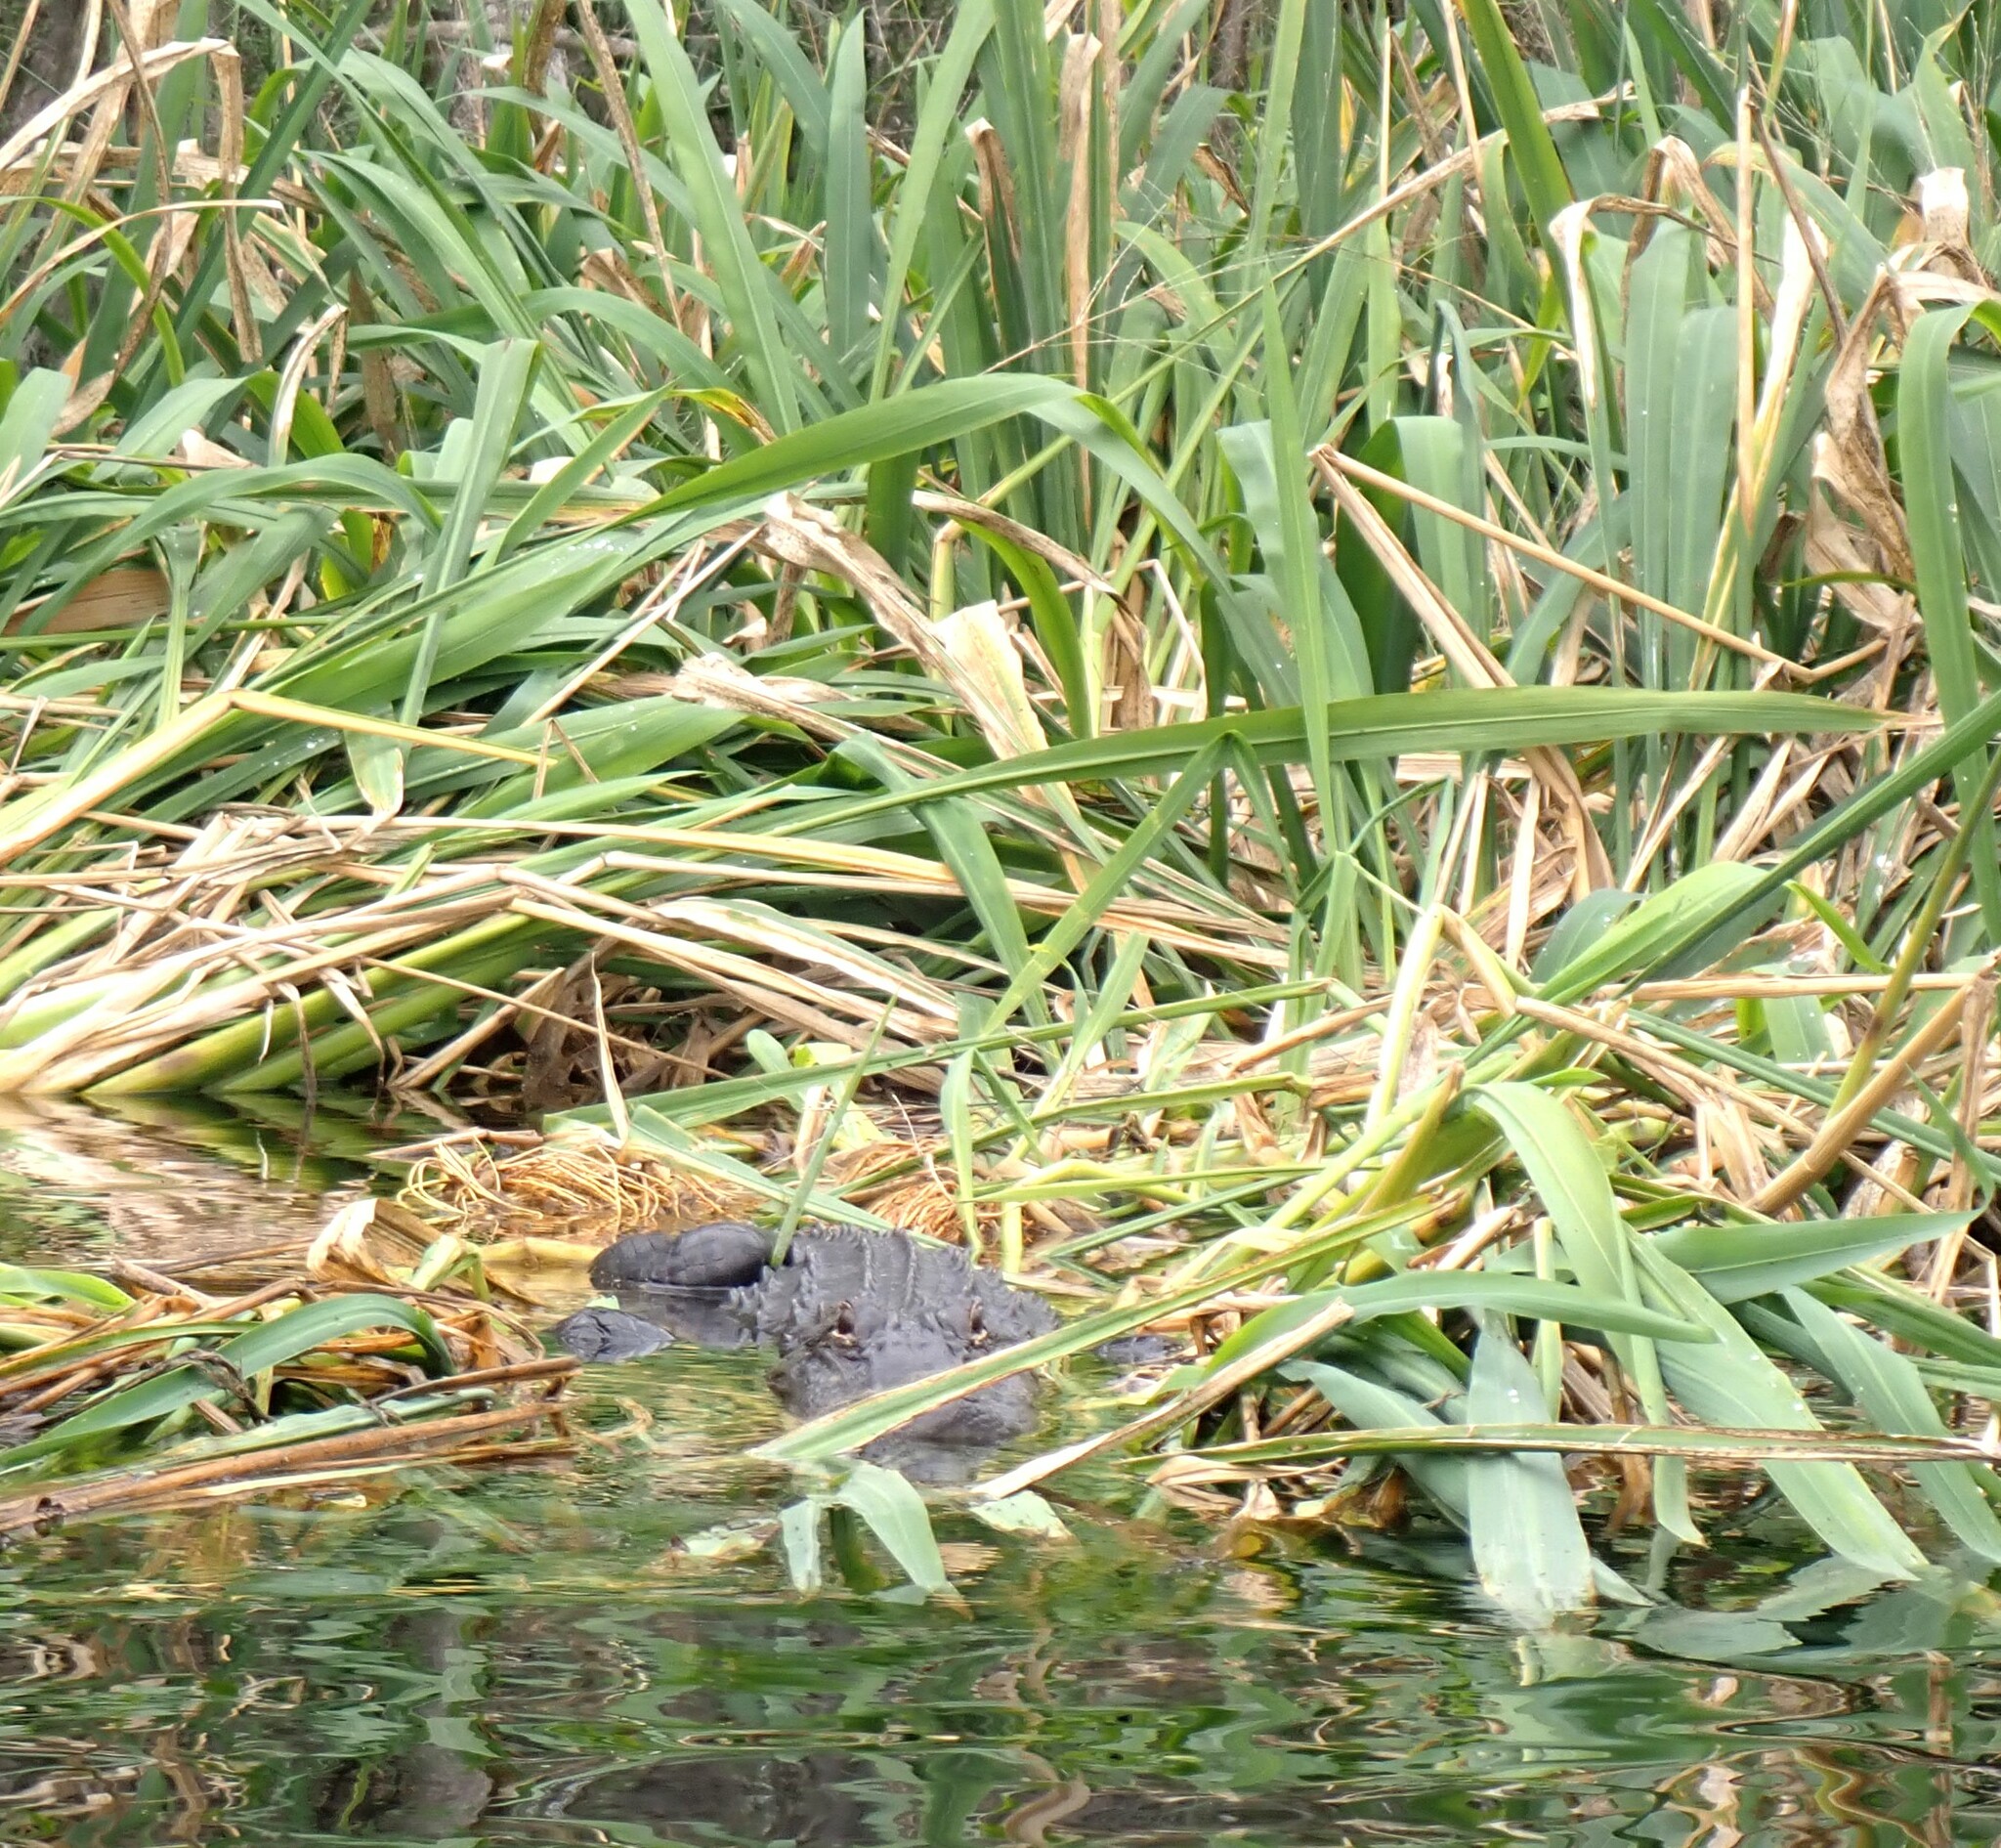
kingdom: Animalia
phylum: Chordata
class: Crocodylia
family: Alligatoridae
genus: Alligator
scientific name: Alligator mississippiensis
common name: American alligator
